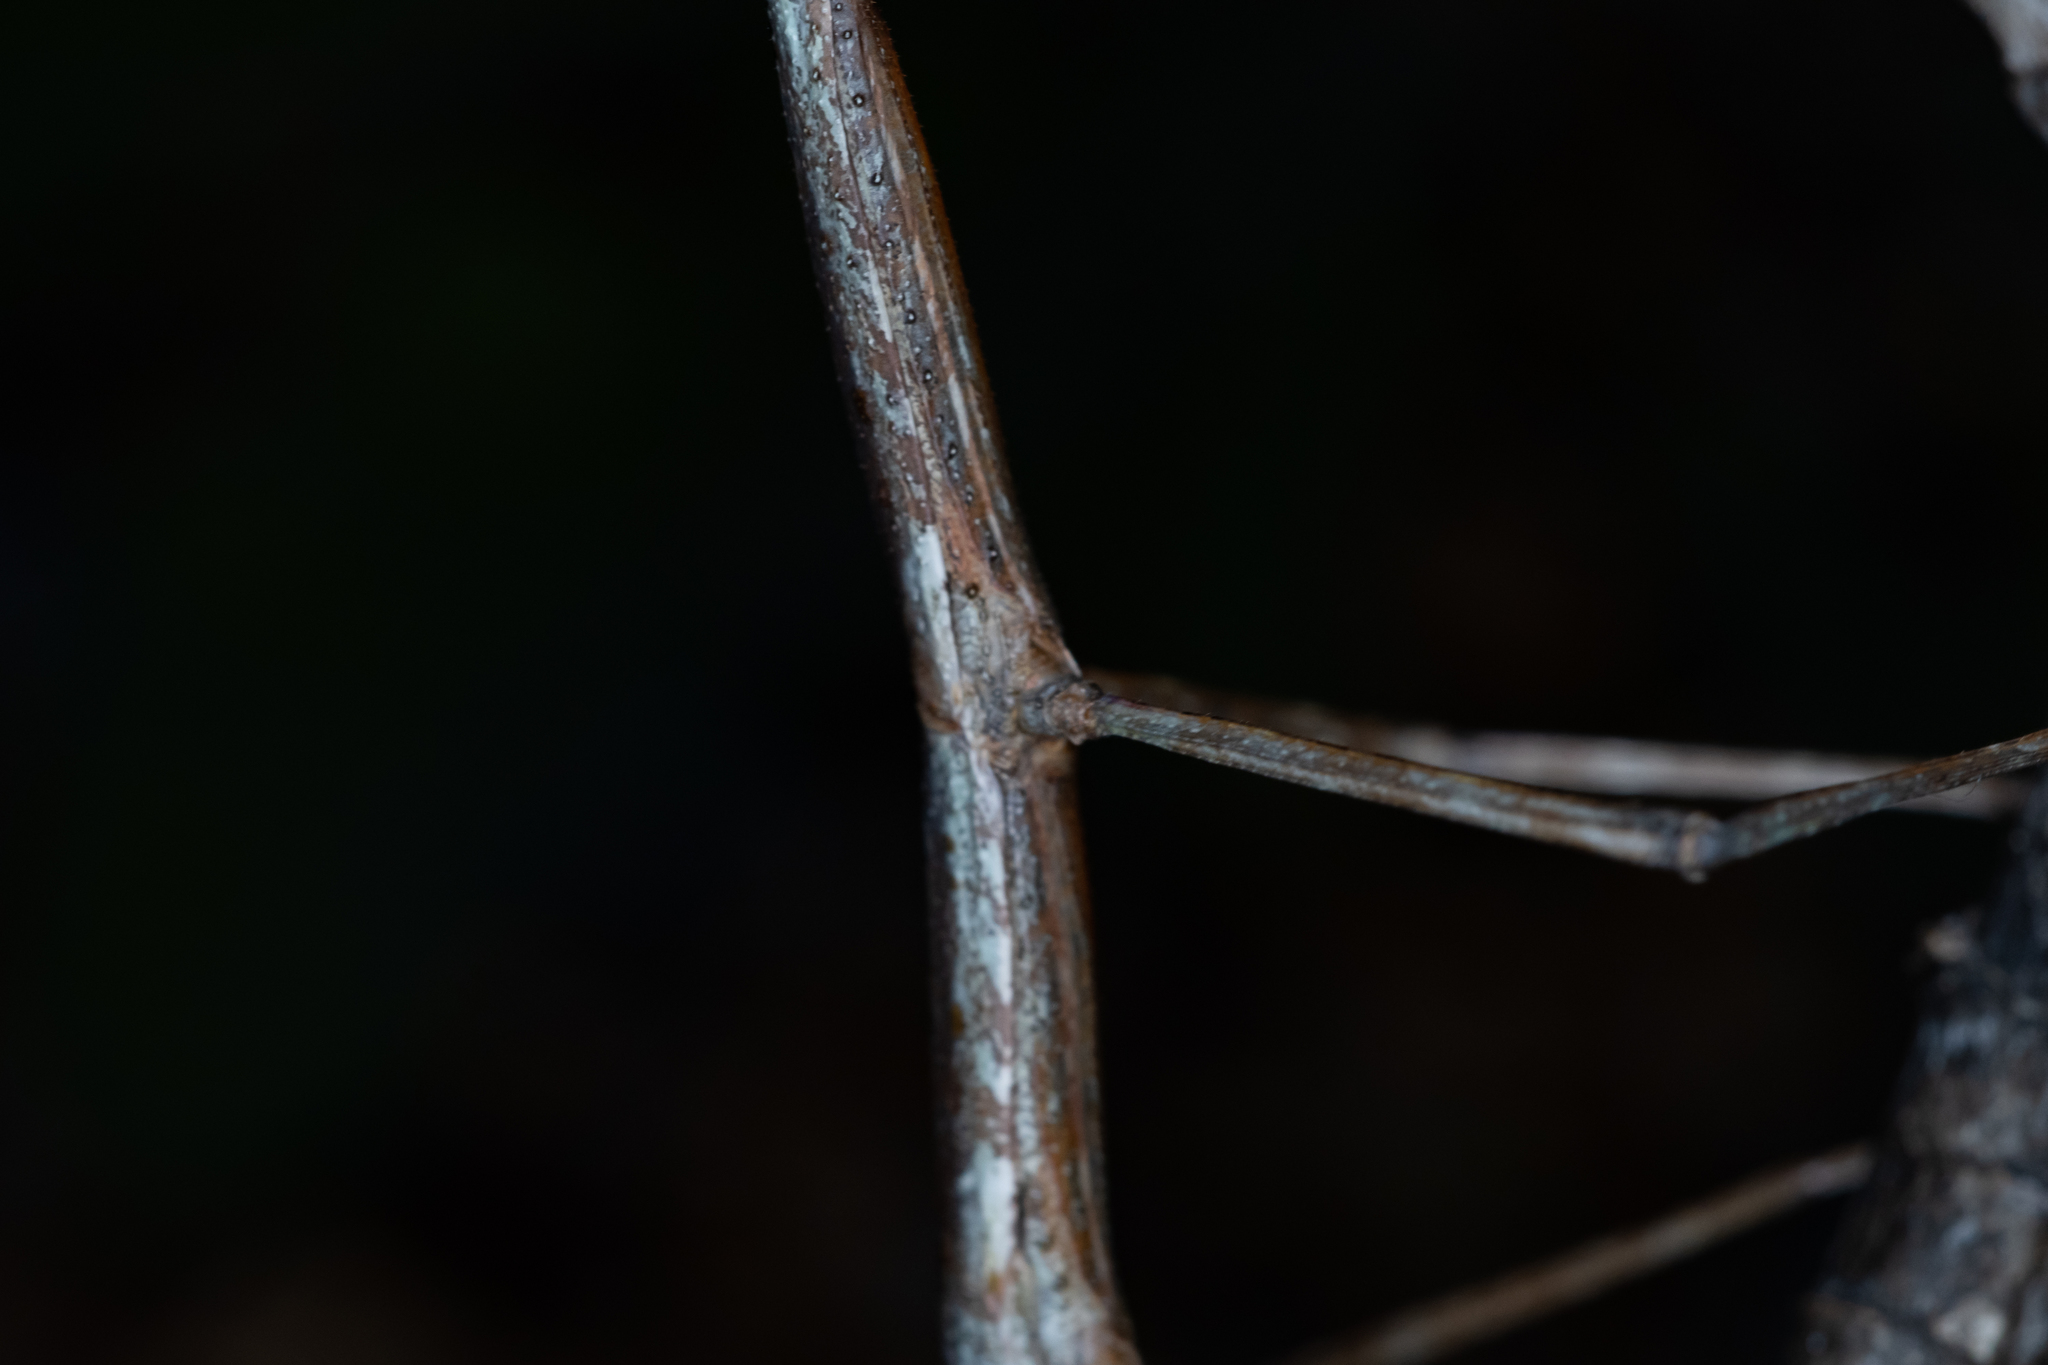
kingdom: Animalia
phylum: Arthropoda
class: Insecta
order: Phasmida
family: Phasmatidae
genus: Clitarchus
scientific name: Clitarchus hookeri
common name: Smooth stick insect
